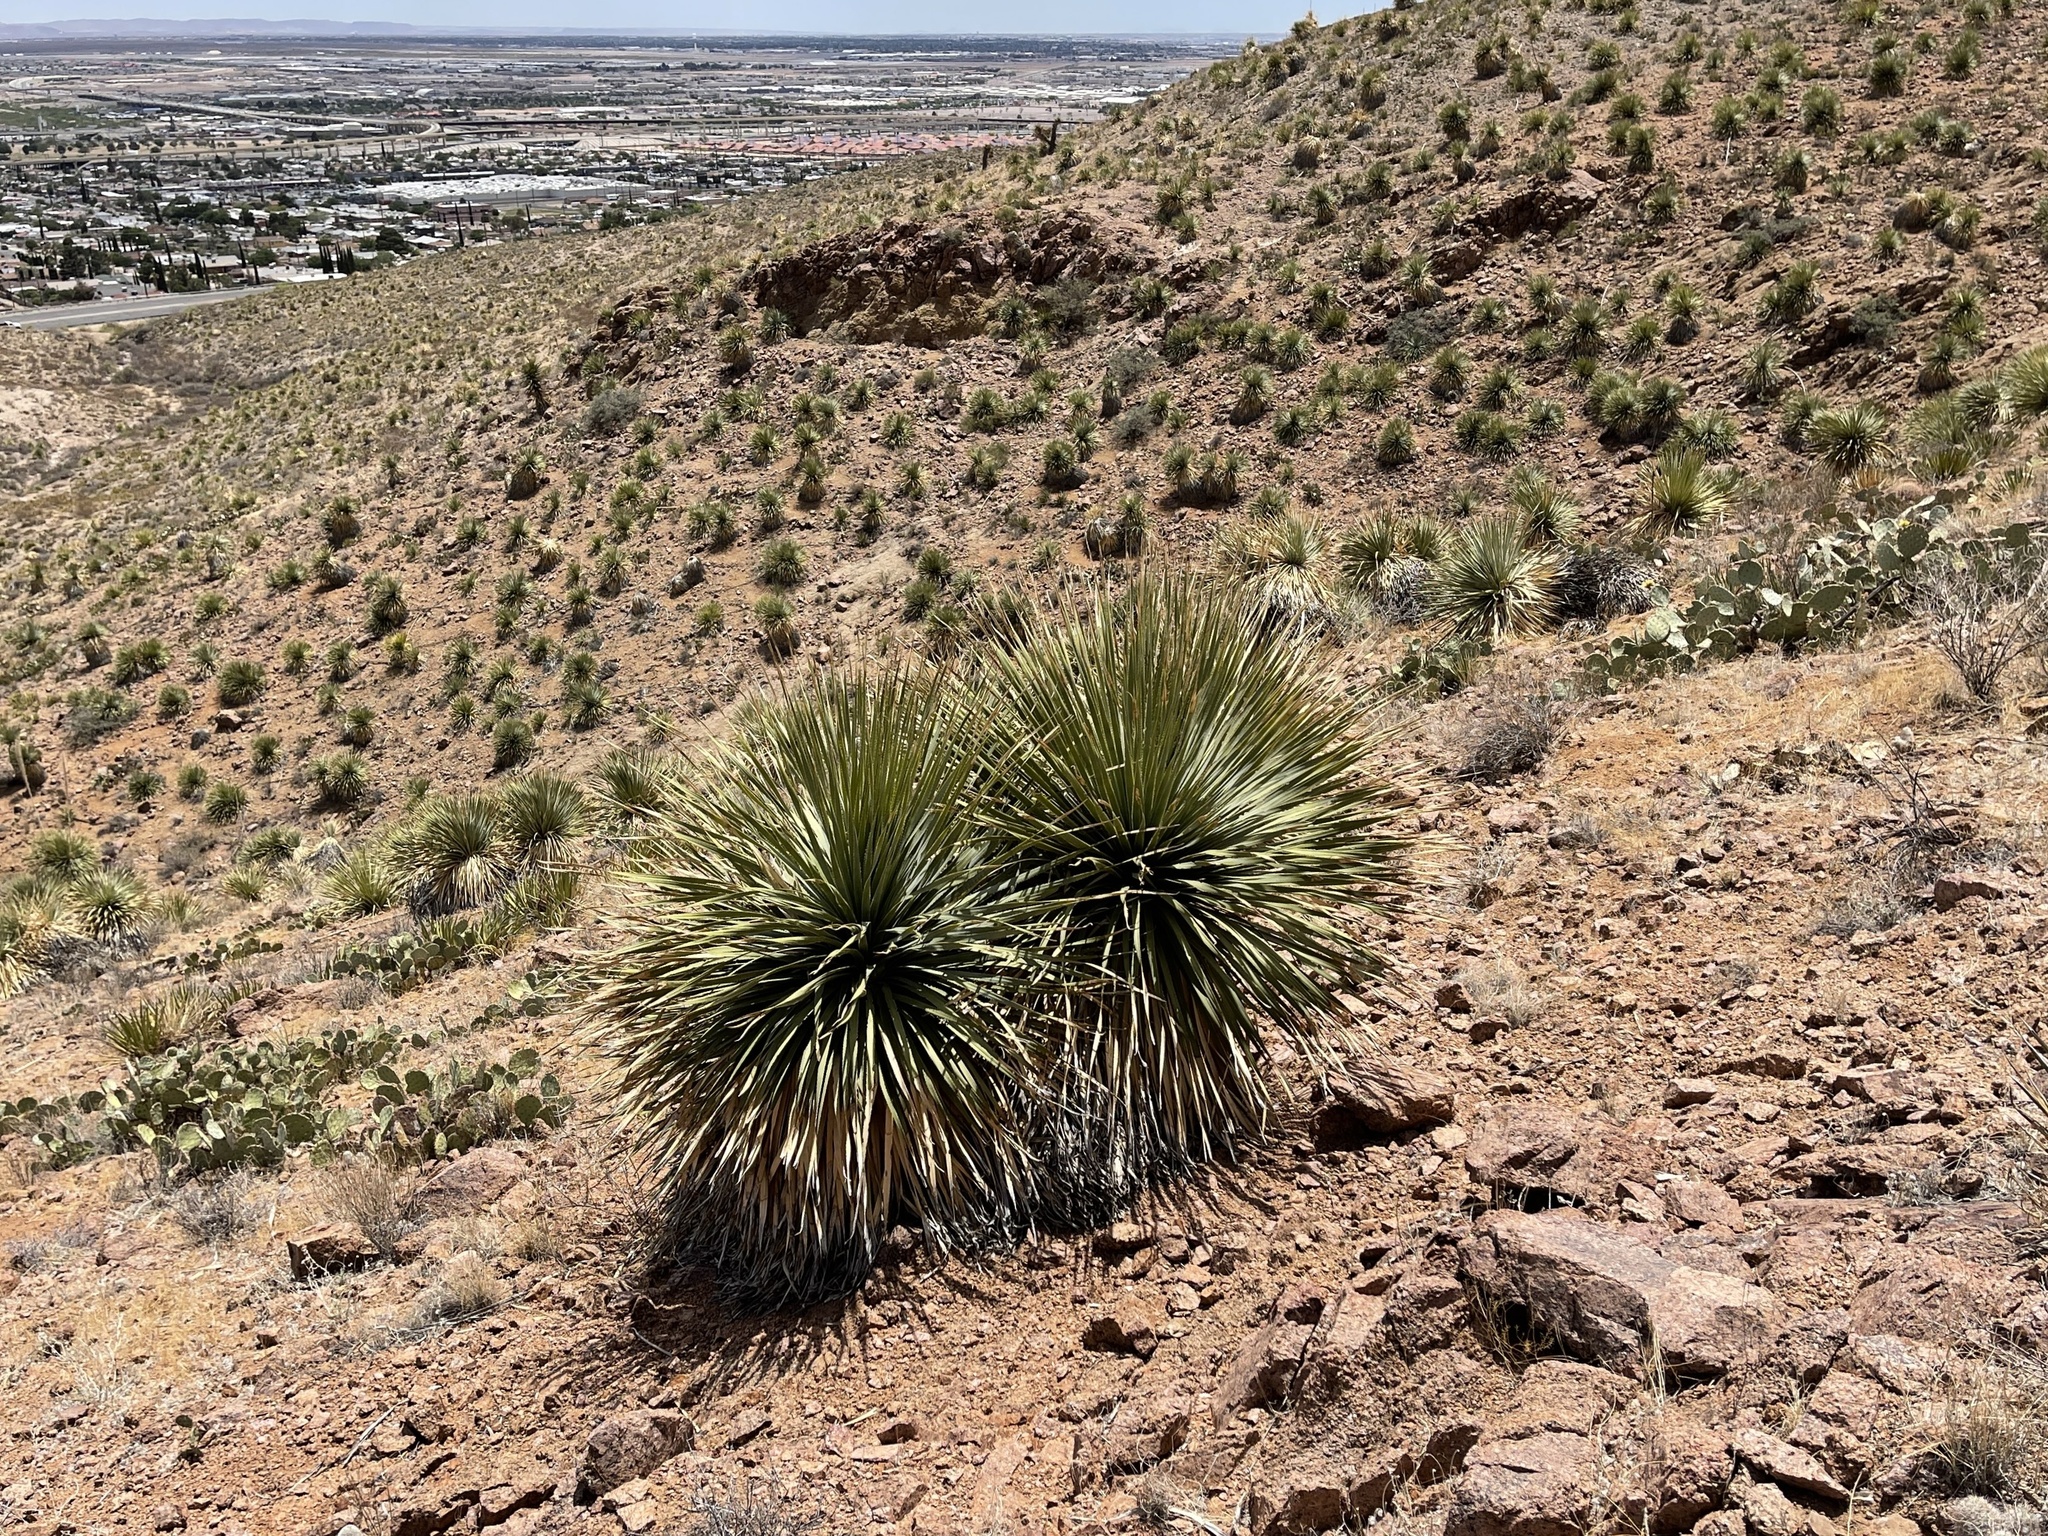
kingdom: Plantae
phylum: Tracheophyta
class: Liliopsida
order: Asparagales
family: Asparagaceae
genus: Dasylirion
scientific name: Dasylirion wheeleri
